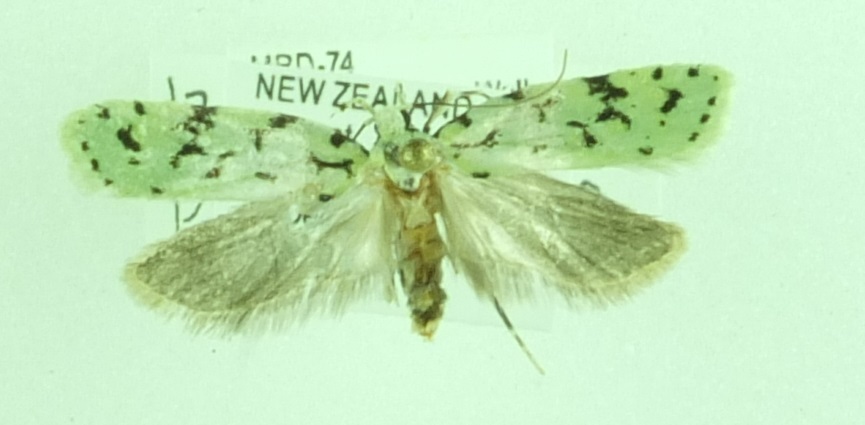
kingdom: Animalia
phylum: Arthropoda
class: Insecta
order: Lepidoptera
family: Oecophoridae
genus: Izatha
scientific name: Izatha peroneanella
